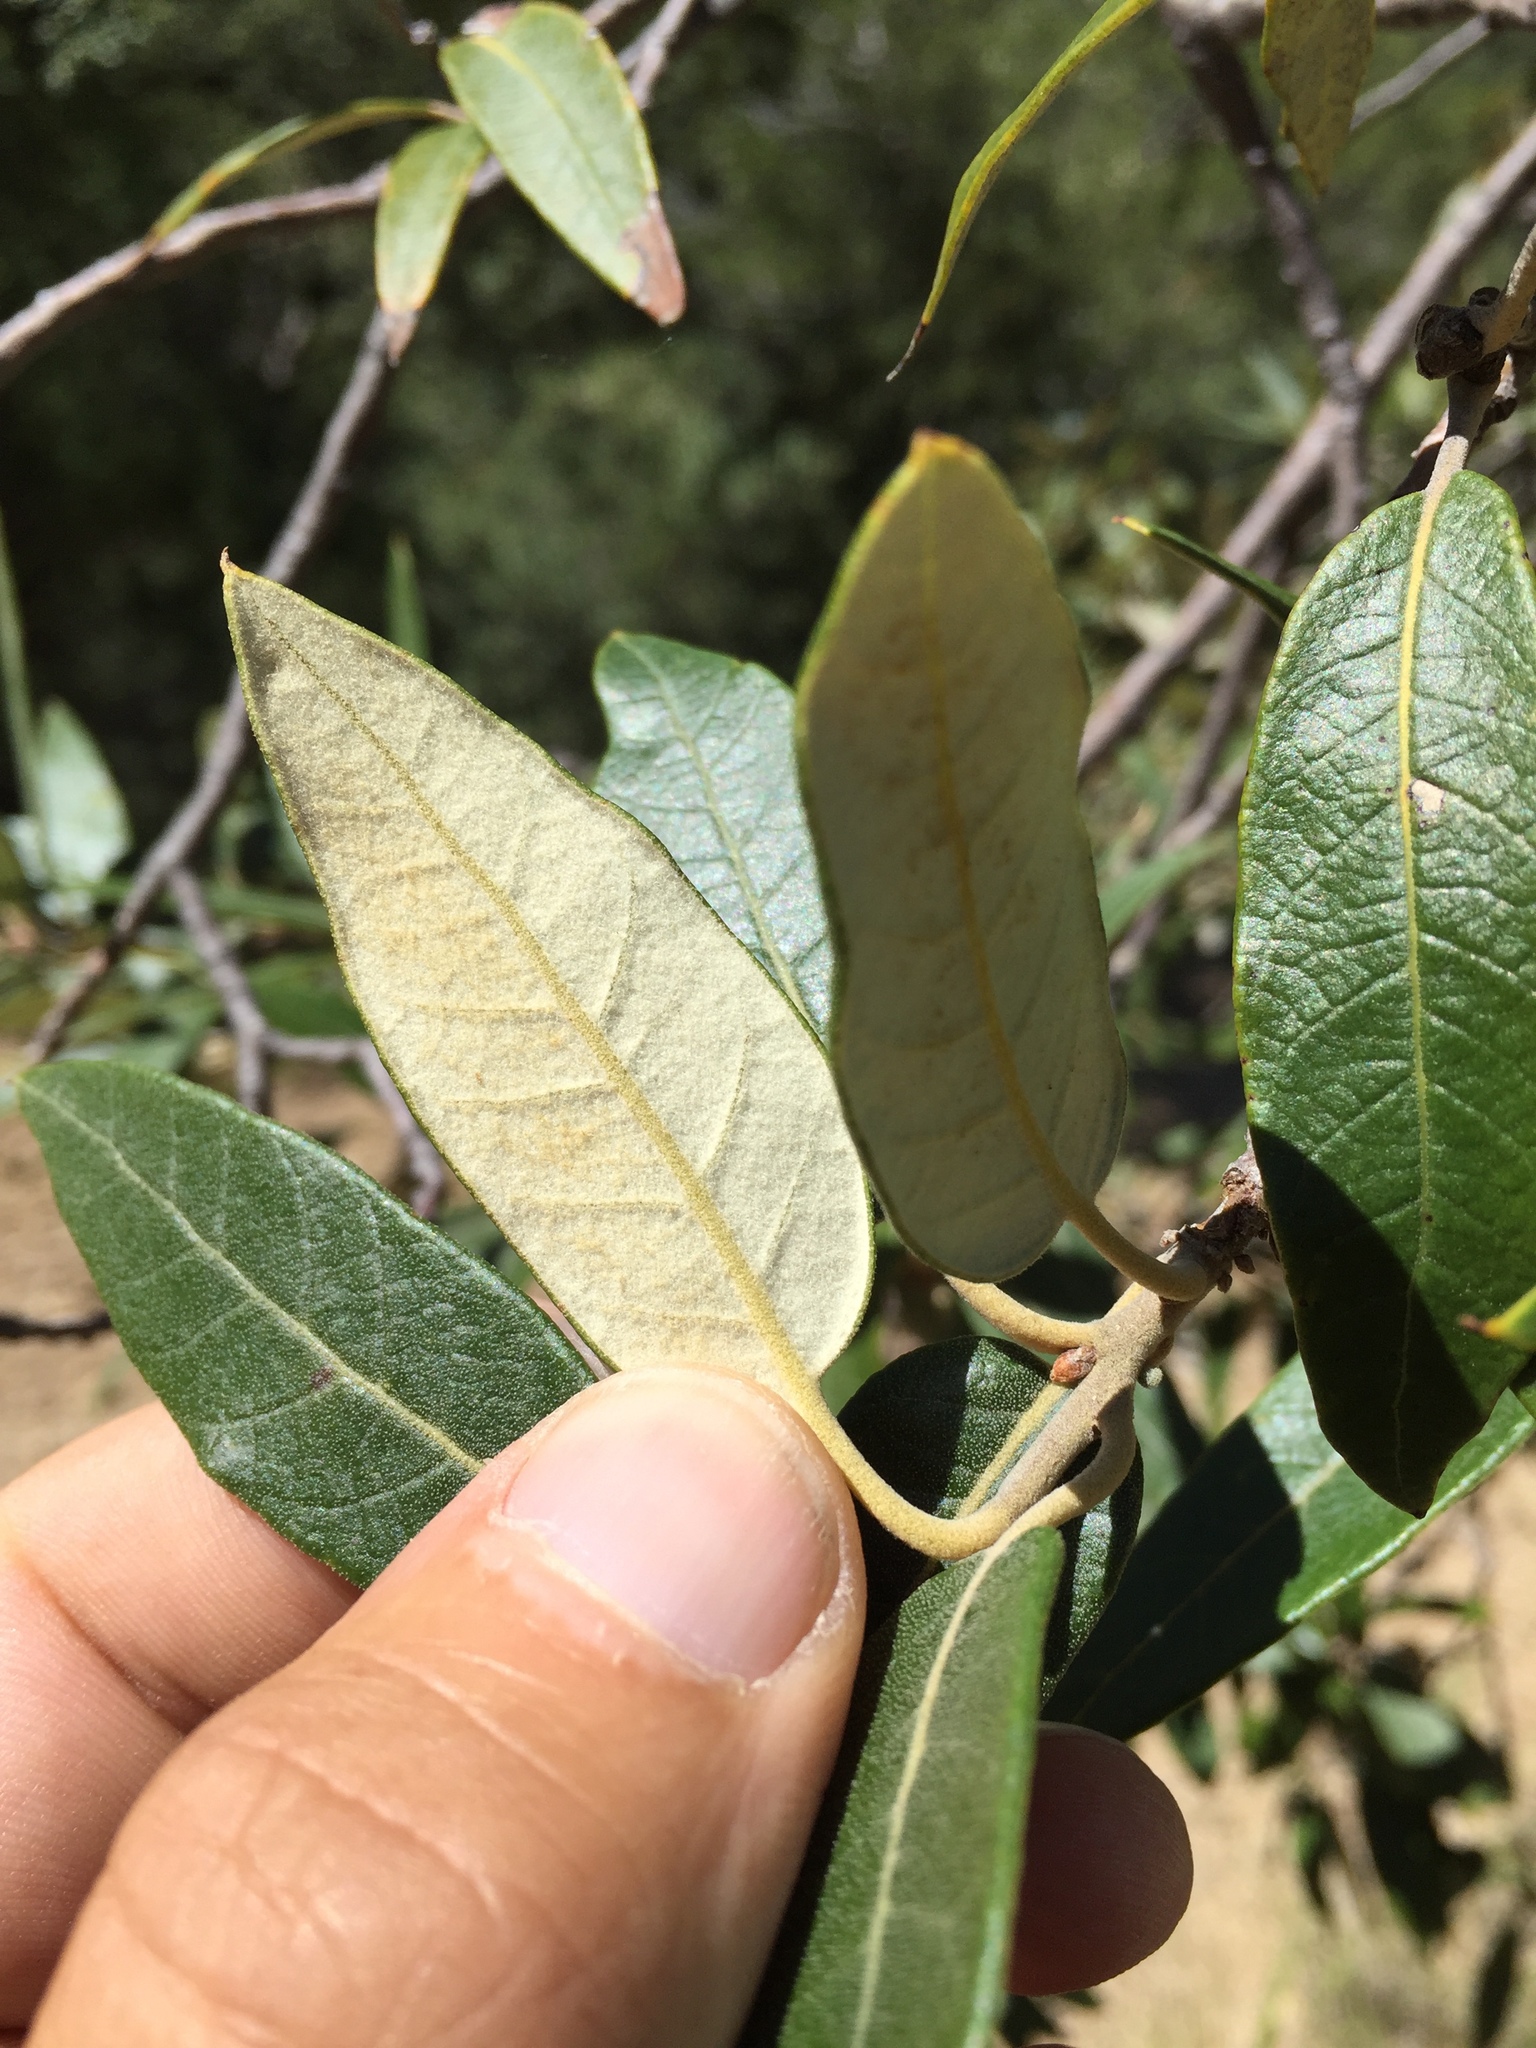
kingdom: Plantae
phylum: Tracheophyta
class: Magnoliopsida
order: Fagales
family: Fagaceae
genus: Quercus
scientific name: Quercus hypoleucoides
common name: Silverleaf oak
